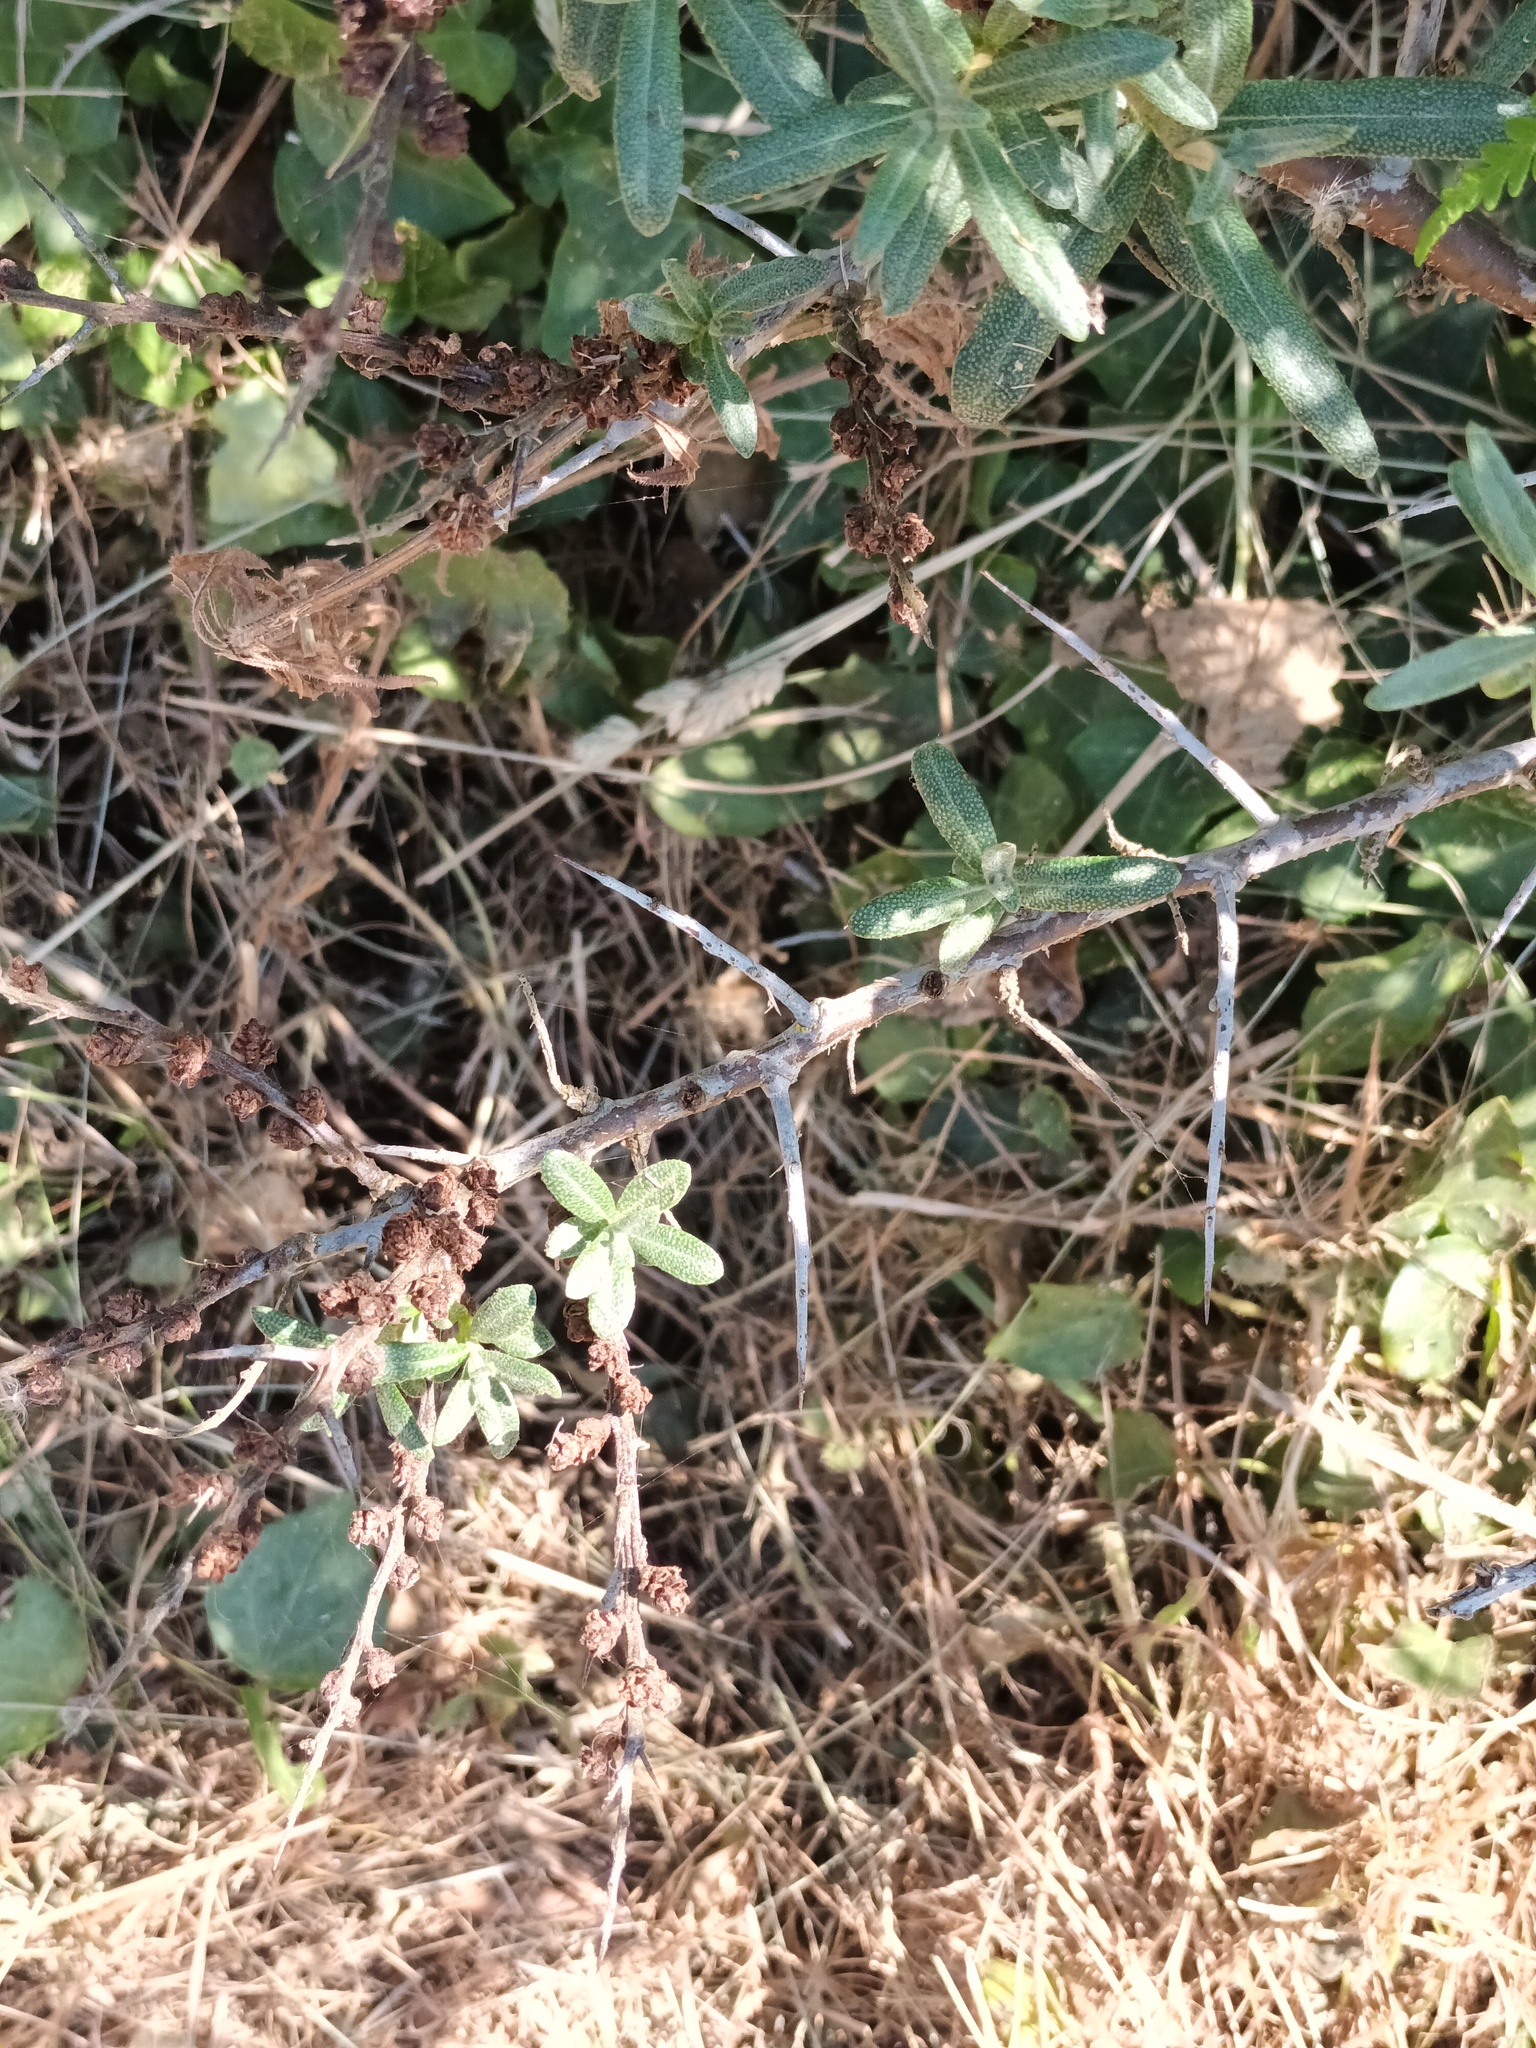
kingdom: Plantae
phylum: Tracheophyta
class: Magnoliopsida
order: Rosales
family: Elaeagnaceae
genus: Hippophae
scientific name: Hippophae rhamnoides
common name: Sea-buckthorn
